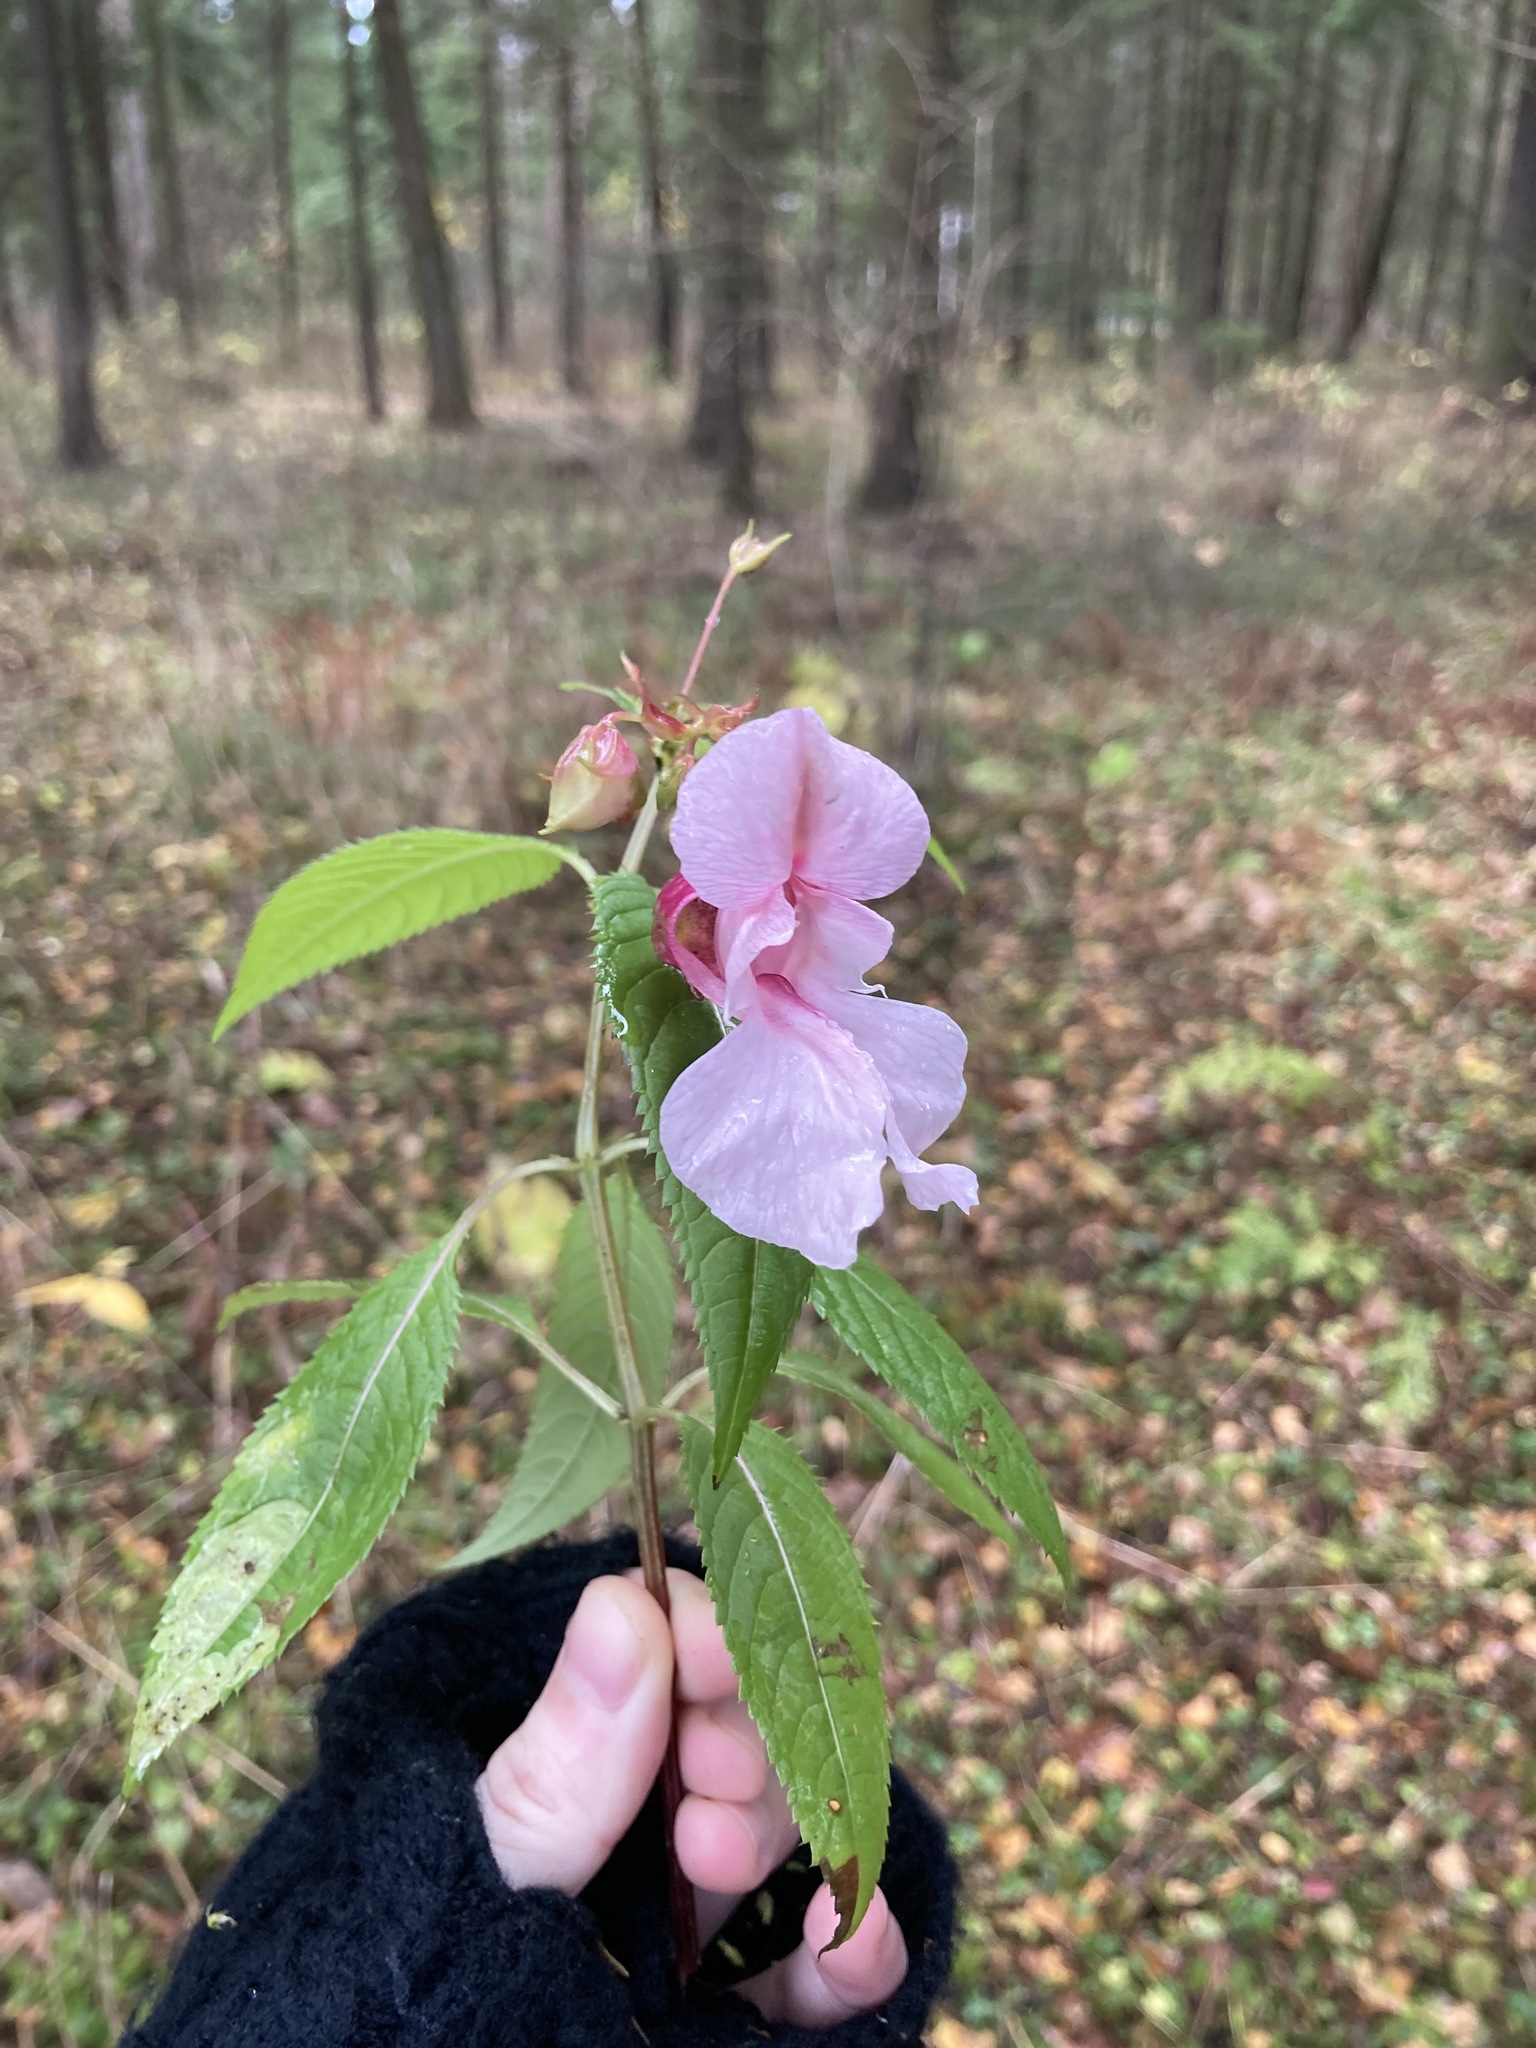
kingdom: Plantae
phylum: Tracheophyta
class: Magnoliopsida
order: Ericales
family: Balsaminaceae
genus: Impatiens
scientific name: Impatiens glandulifera
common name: Himalayan balsam
